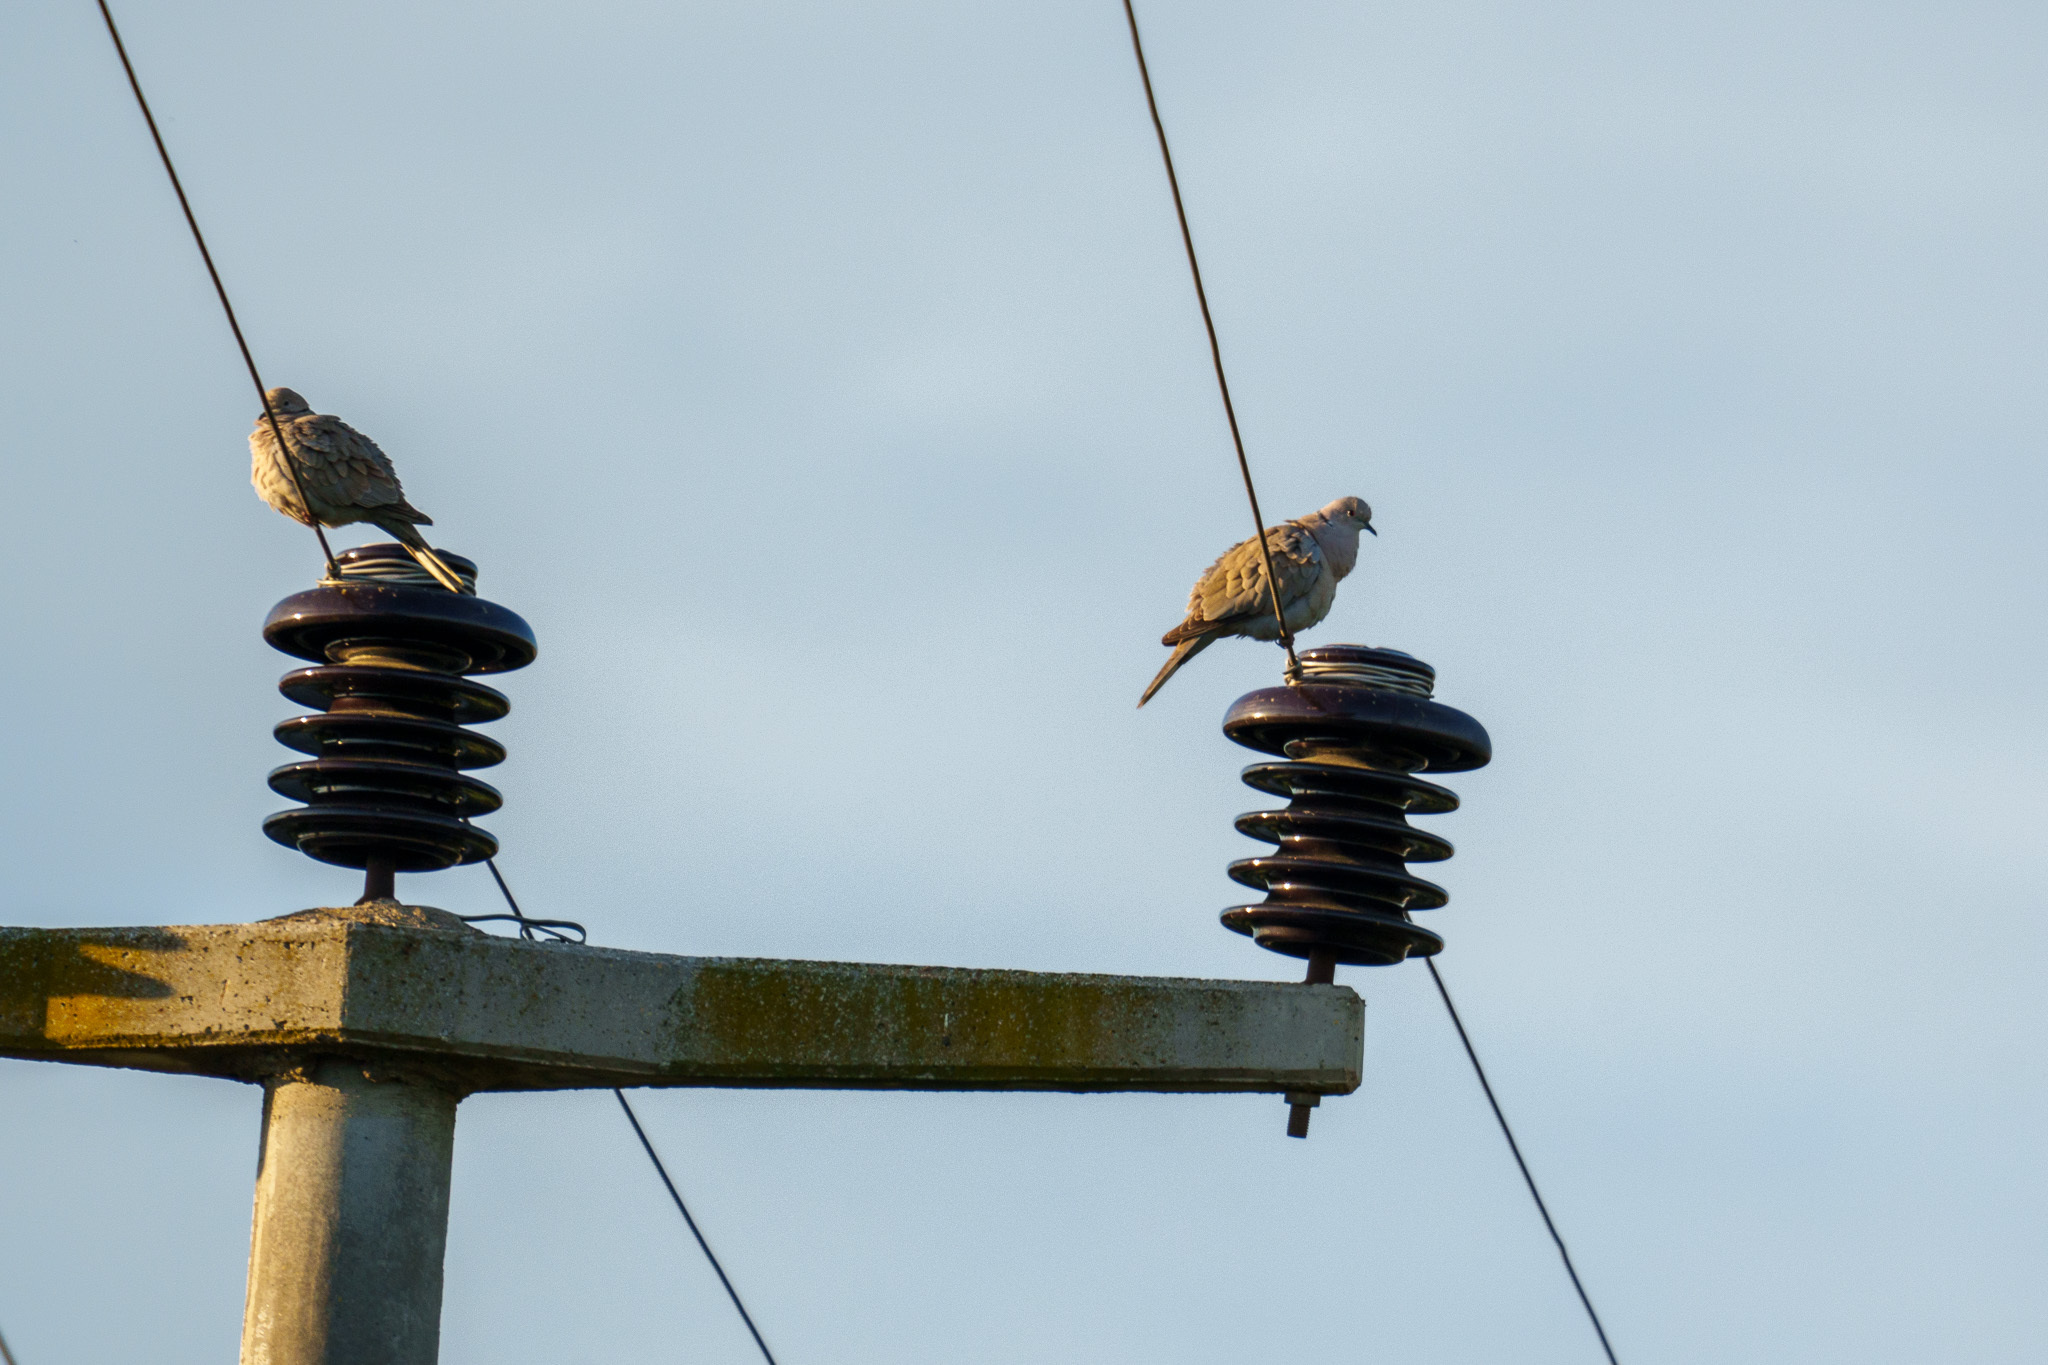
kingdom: Animalia
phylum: Chordata
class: Aves
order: Columbiformes
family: Columbidae
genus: Streptopelia
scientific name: Streptopelia decaocto
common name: Eurasian collared dove
